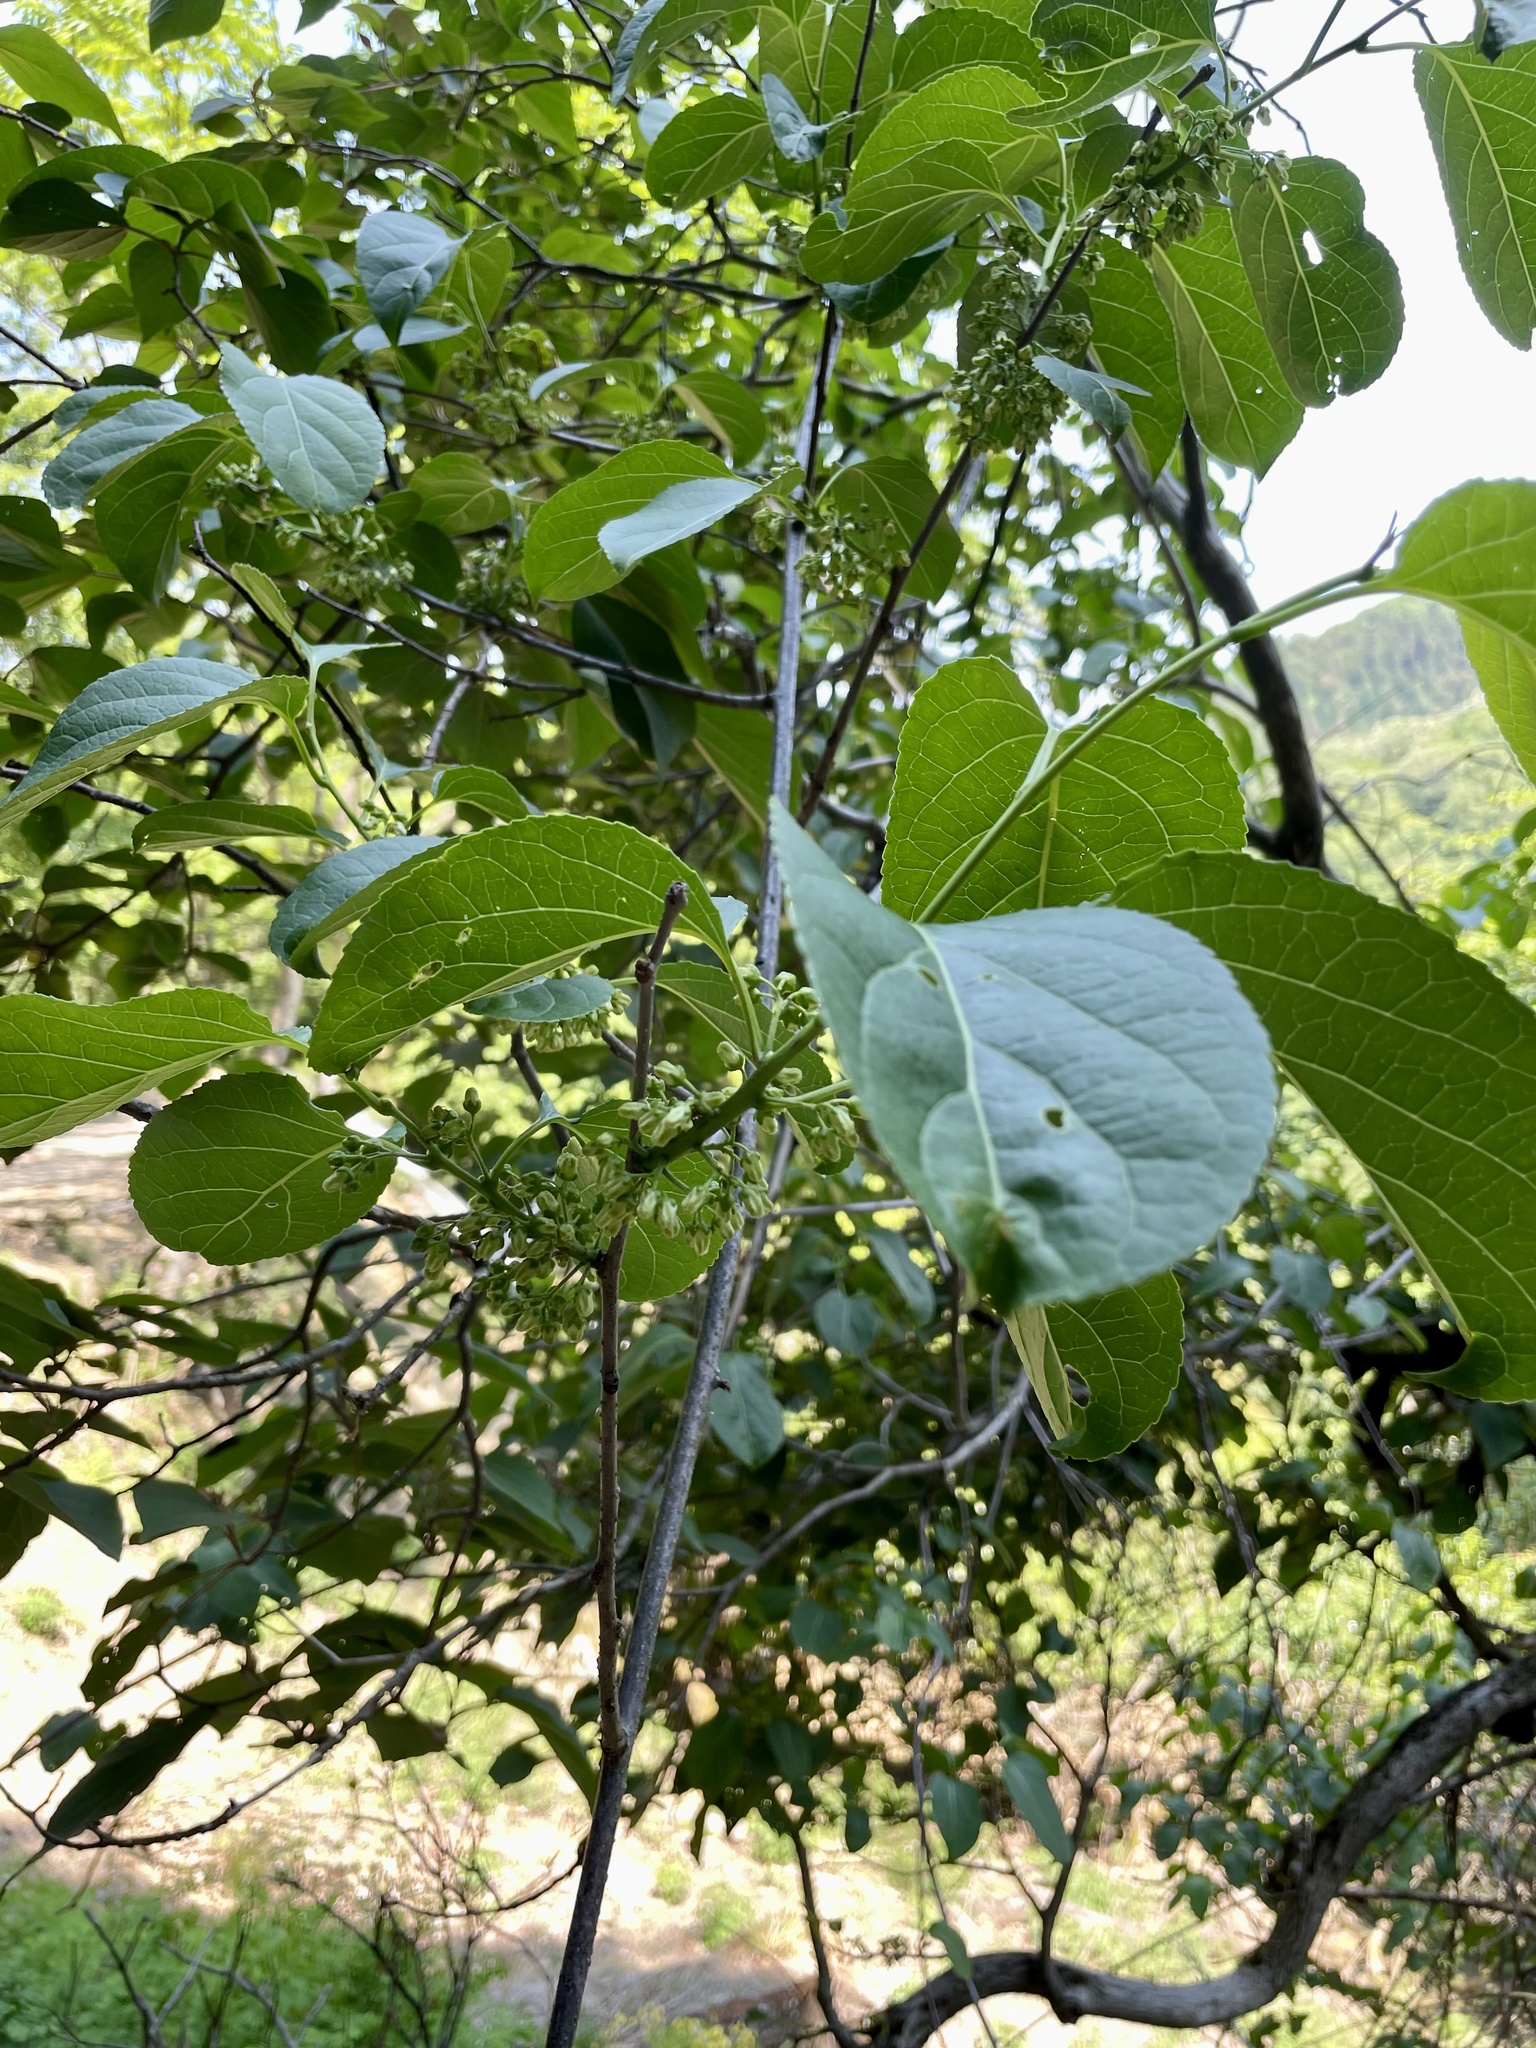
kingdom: Plantae
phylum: Tracheophyta
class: Magnoliopsida
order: Celastrales
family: Celastraceae
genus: Celastrus
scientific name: Celastrus orbiculatus
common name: Oriental bittersweet
